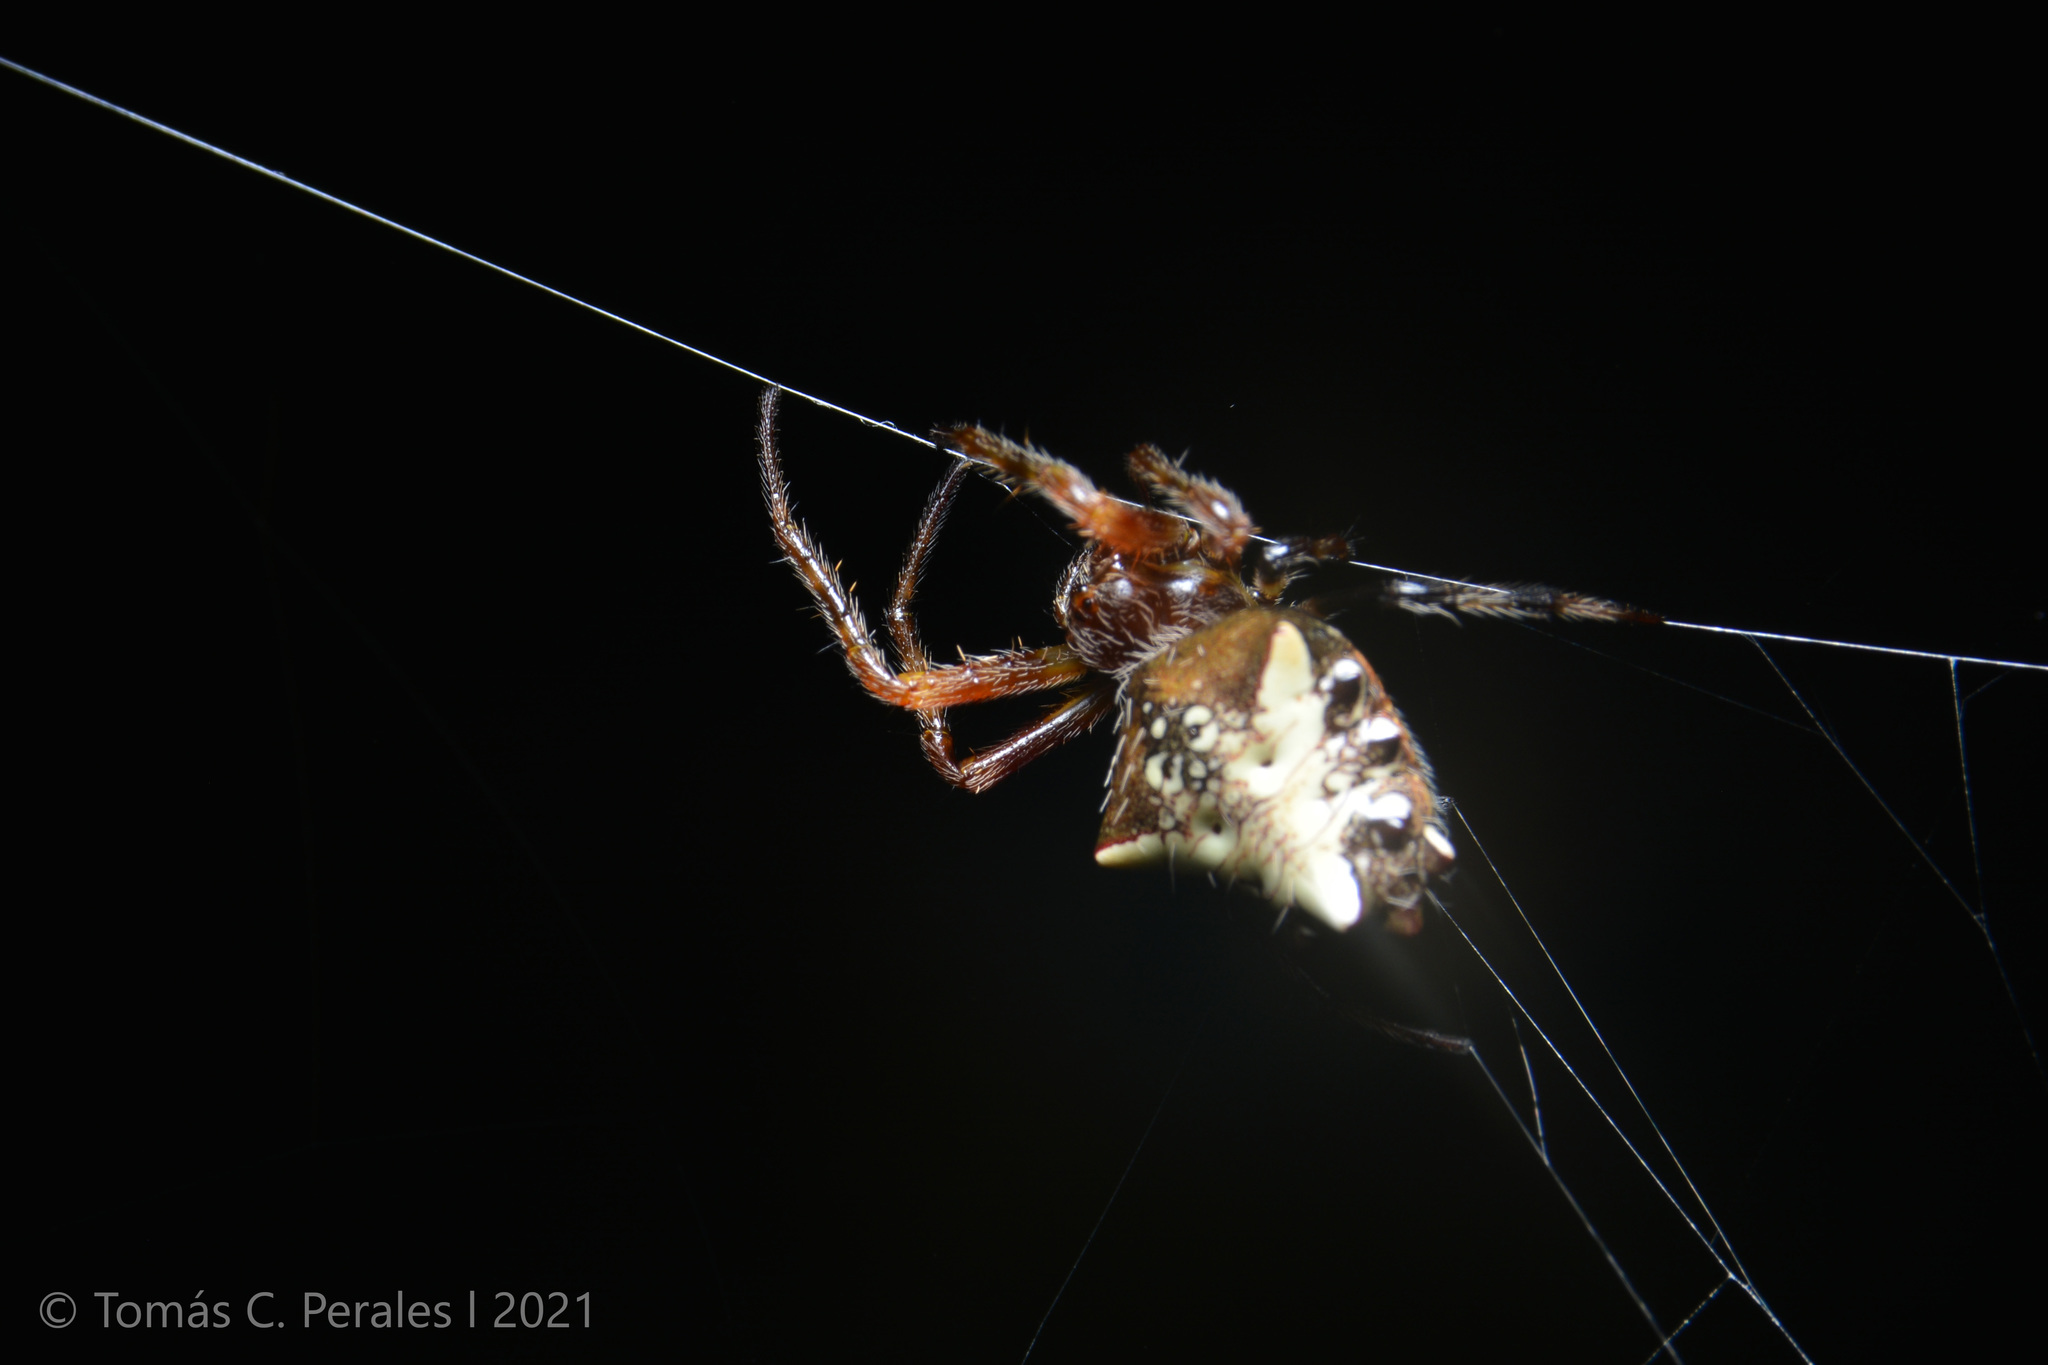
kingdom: Animalia
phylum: Arthropoda
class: Arachnida
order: Araneae
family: Araneidae
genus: Verrucosa
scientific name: Verrucosa meridionalis
